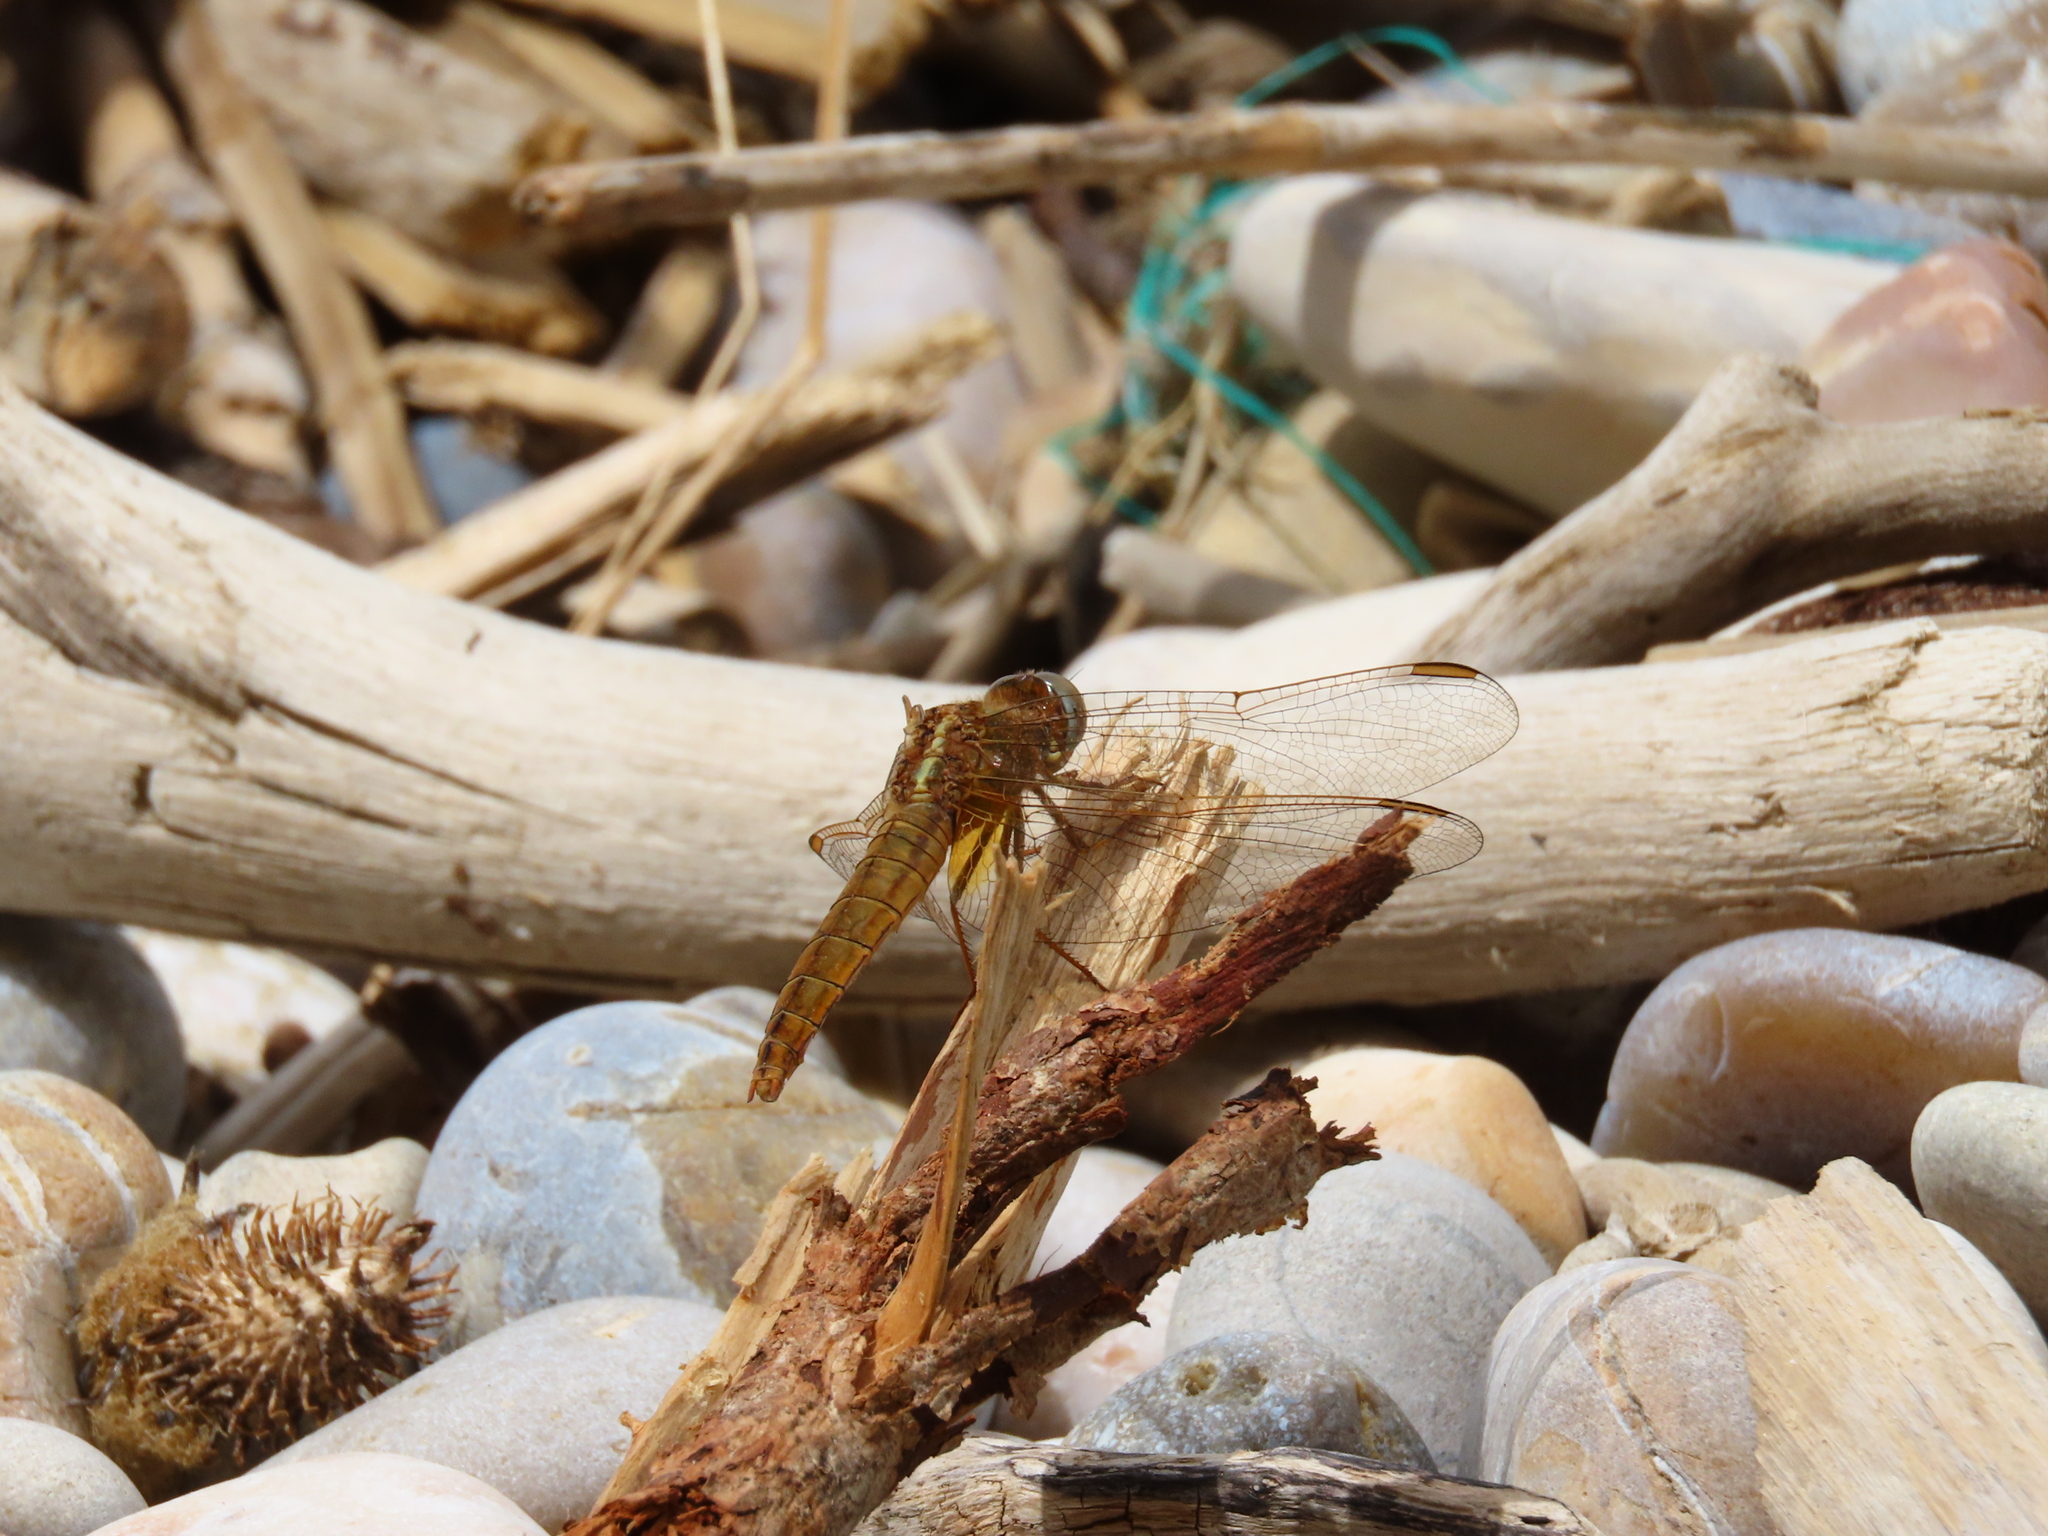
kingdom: Animalia
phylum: Arthropoda
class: Insecta
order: Odonata
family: Libellulidae
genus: Crocothemis
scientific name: Crocothemis erythraea
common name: Scarlet dragonfly
